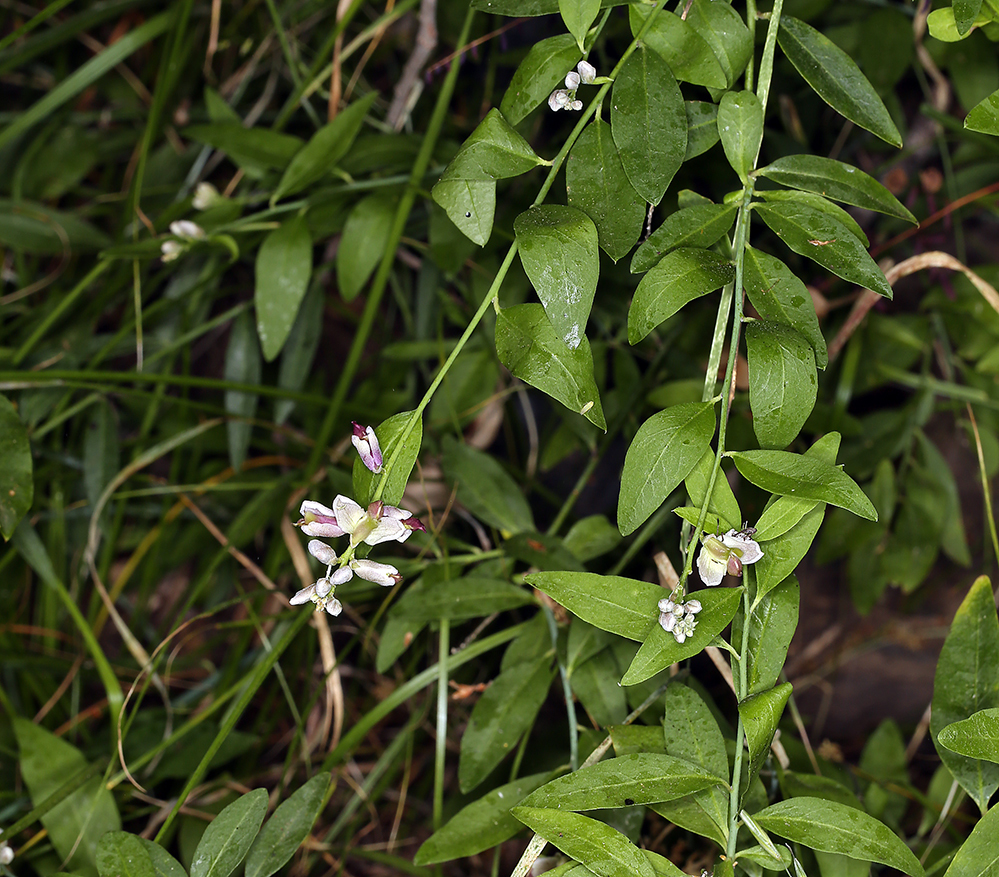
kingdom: Plantae
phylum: Tracheophyta
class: Magnoliopsida
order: Fabales
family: Polygalaceae
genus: Rhinotropis
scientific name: Rhinotropis cornuta
